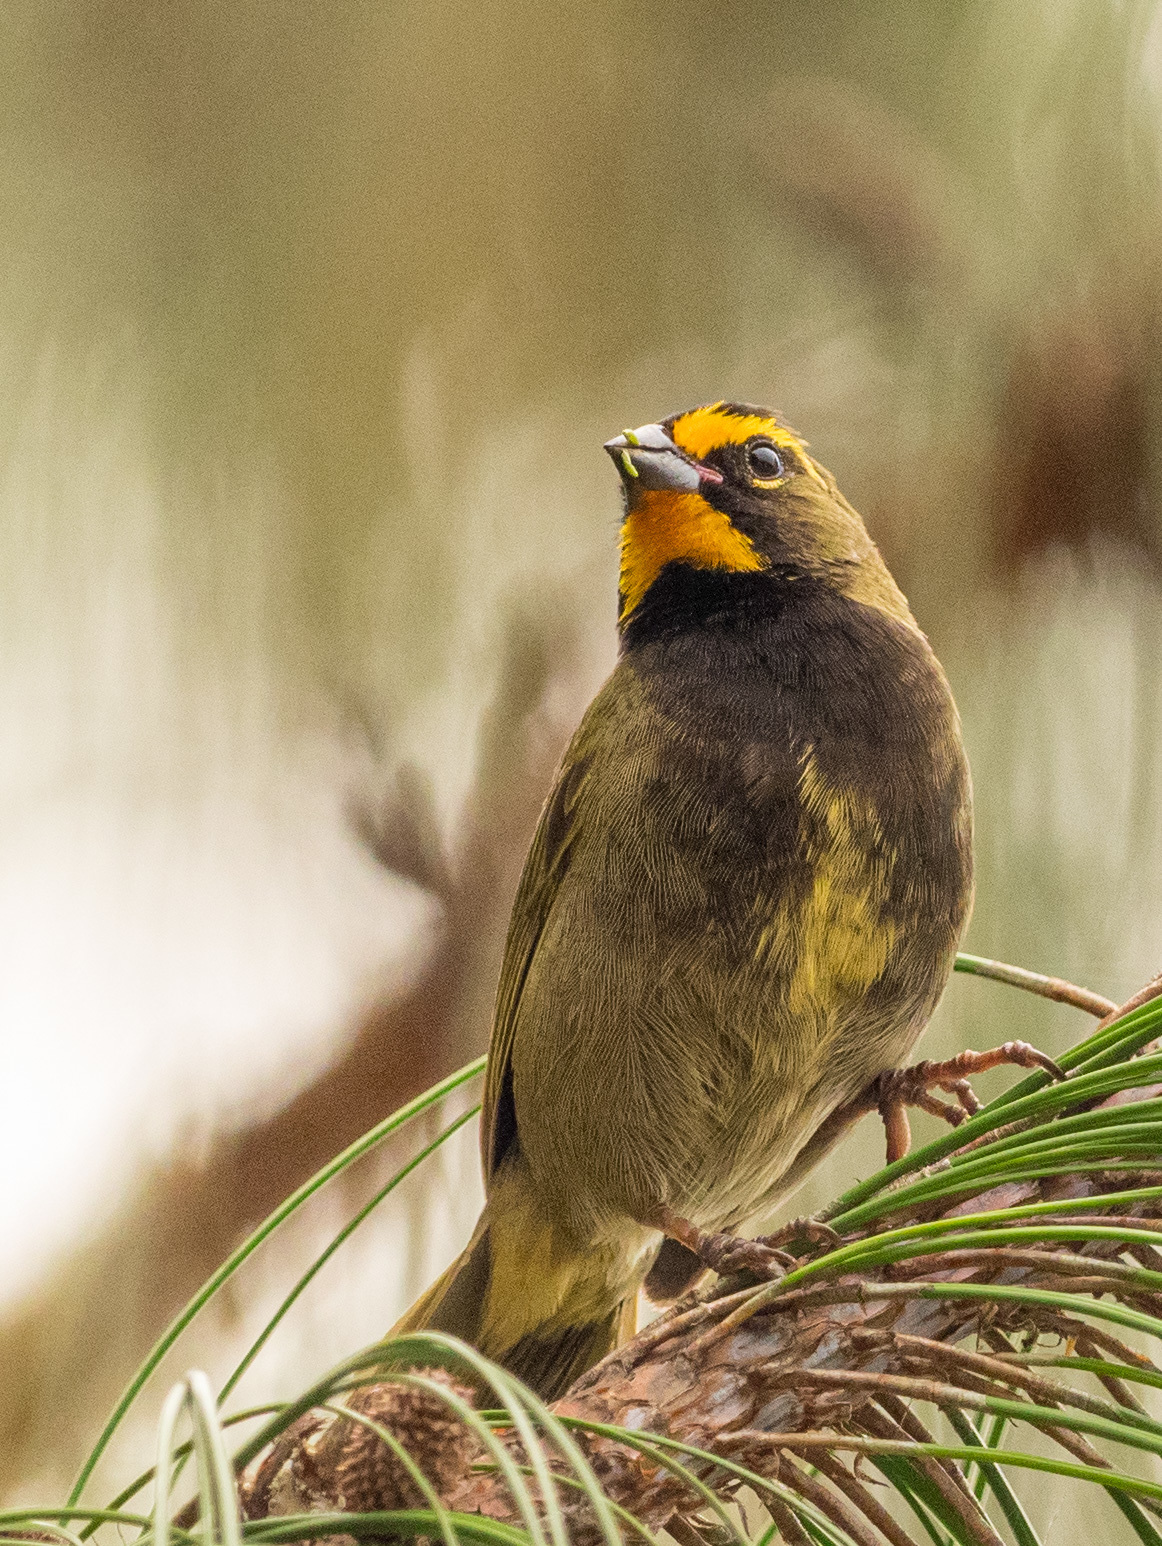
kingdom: Animalia
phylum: Chordata
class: Aves
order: Passeriformes
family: Thraupidae
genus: Tiaris
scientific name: Tiaris olivaceus
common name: Yellow-faced grassquit
